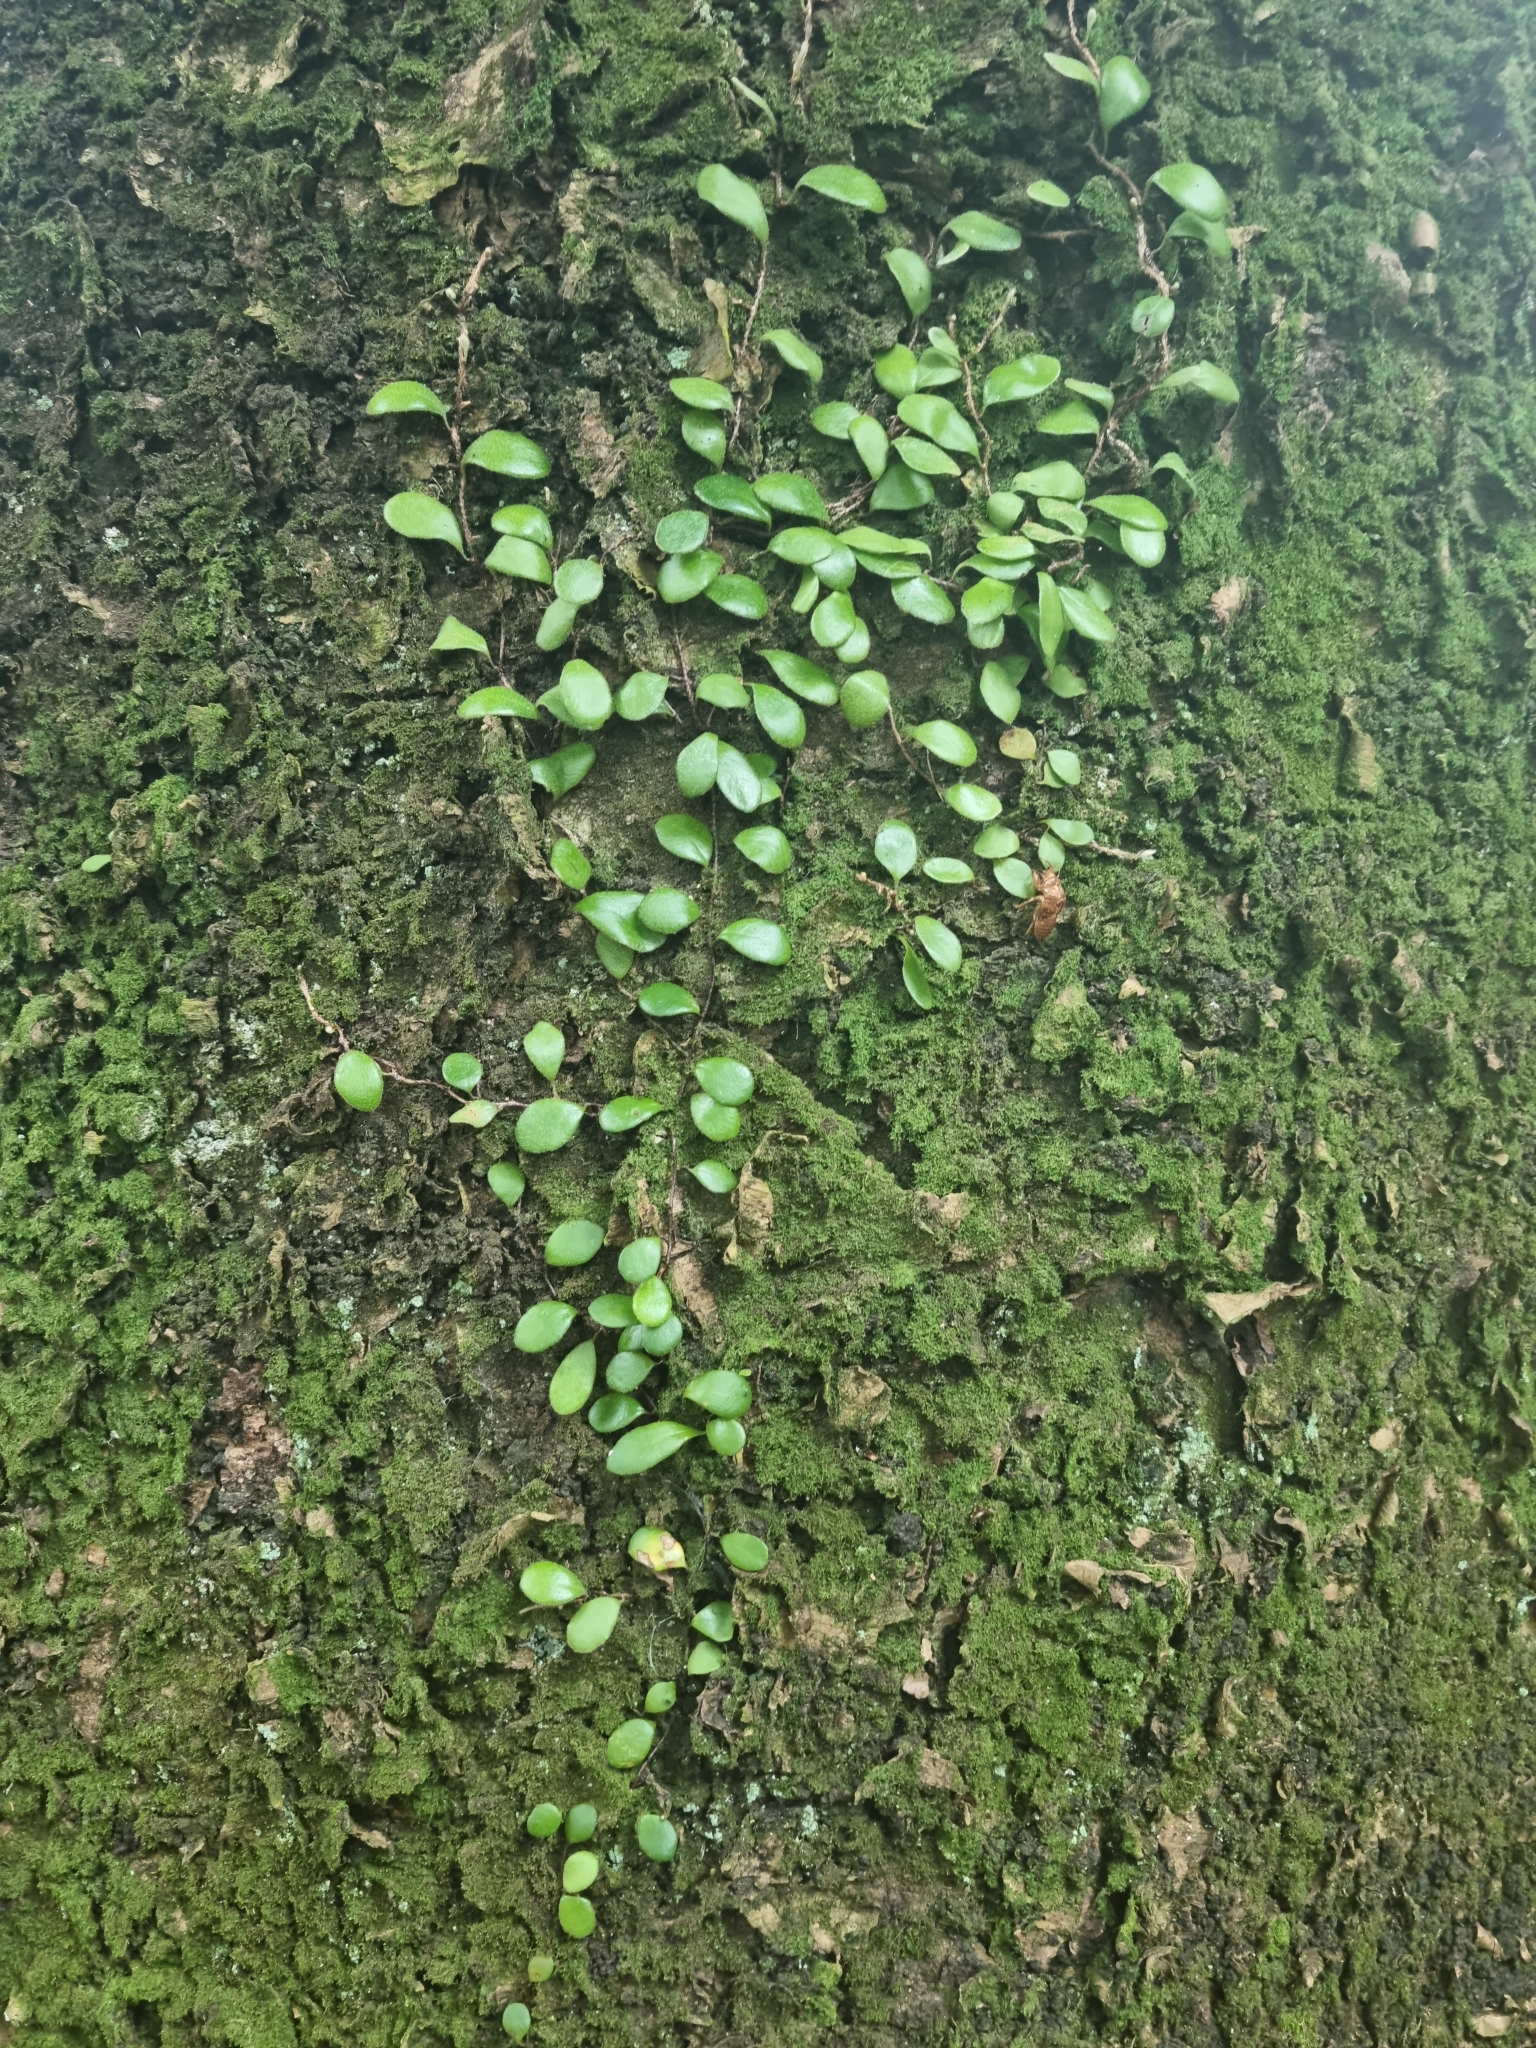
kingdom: Plantae
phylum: Tracheophyta
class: Polypodiopsida
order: Polypodiales
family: Polypodiaceae
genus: Pyrrosia
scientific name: Pyrrosia eleagnifolia
